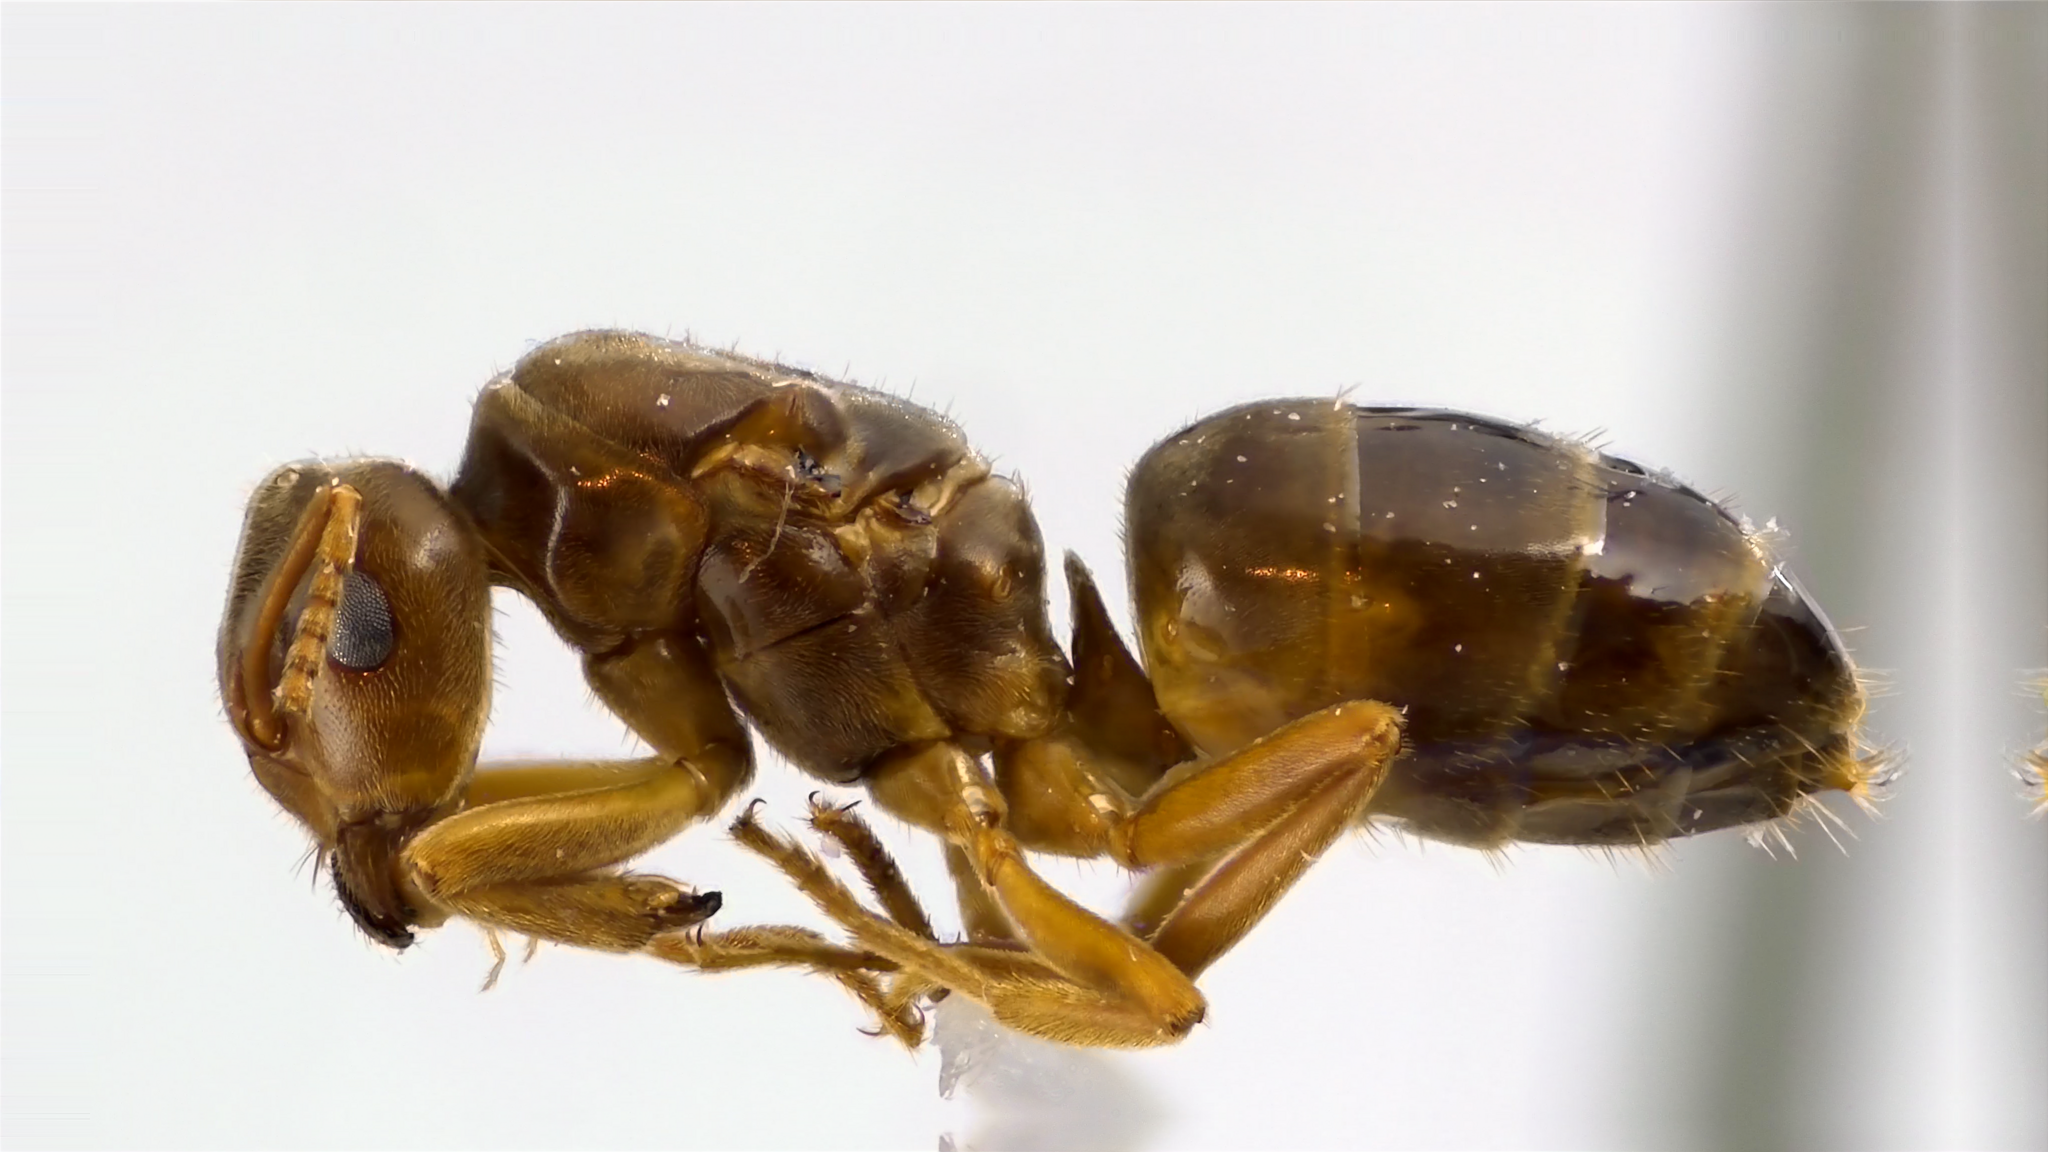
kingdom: Animalia
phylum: Arthropoda
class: Insecta
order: Hymenoptera
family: Formicidae
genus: Lasius
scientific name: Lasius speculiventris
